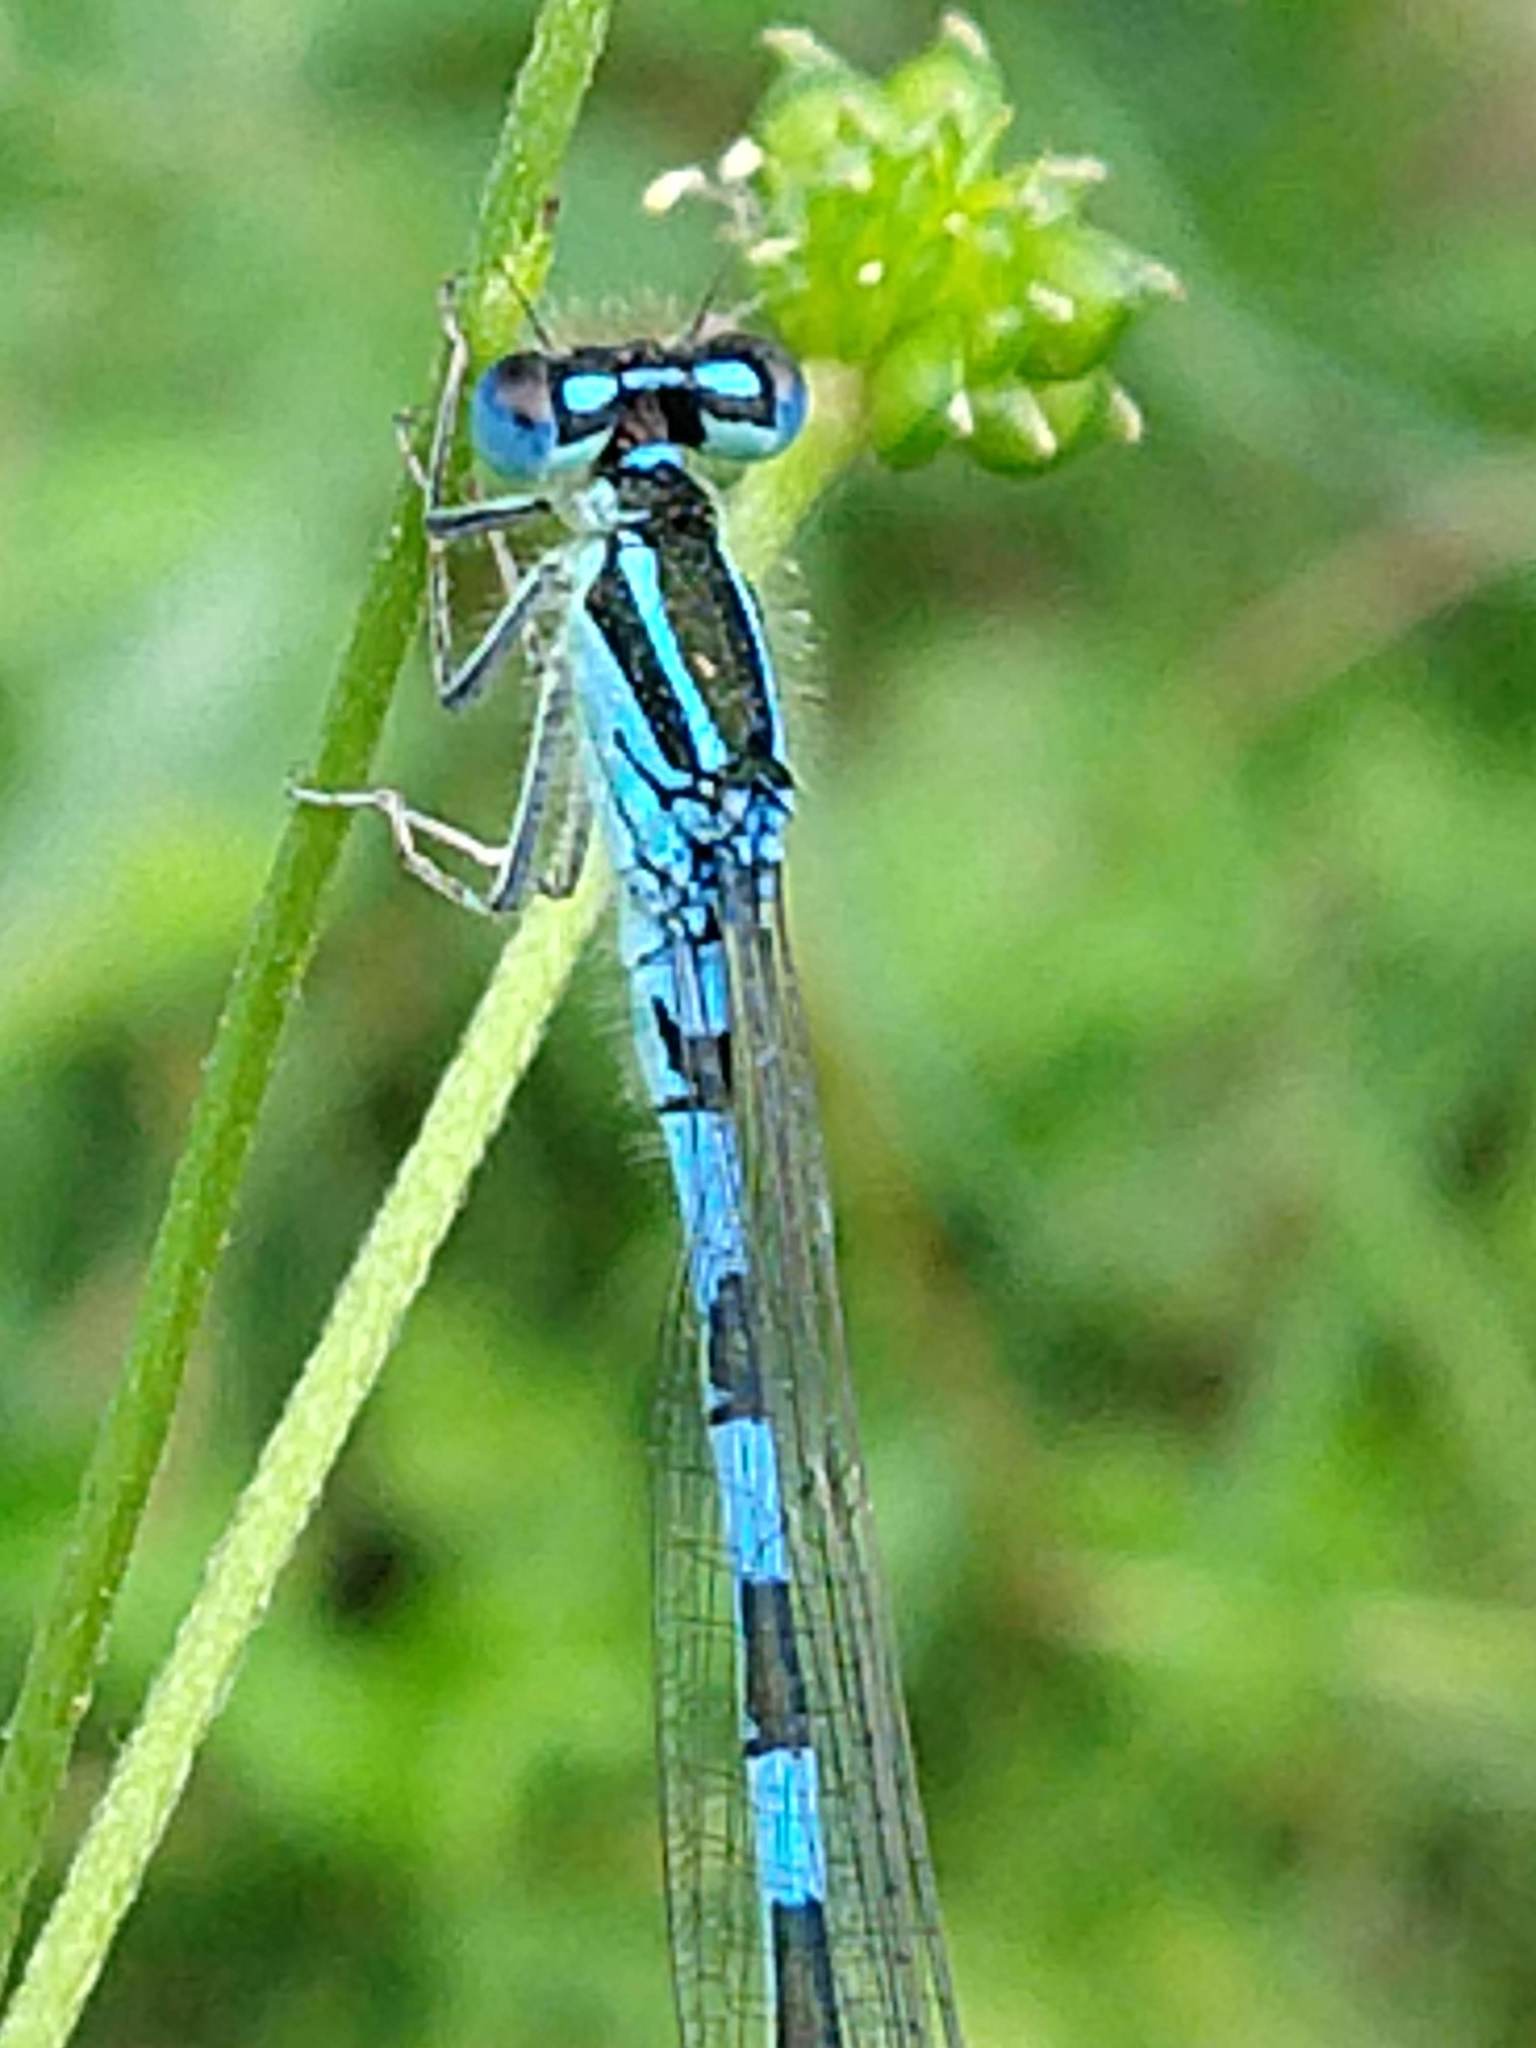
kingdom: Animalia
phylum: Arthropoda
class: Insecta
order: Odonata
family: Coenagrionidae
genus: Coenagrion
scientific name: Coenagrion scitulum
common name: Dainty bluet
